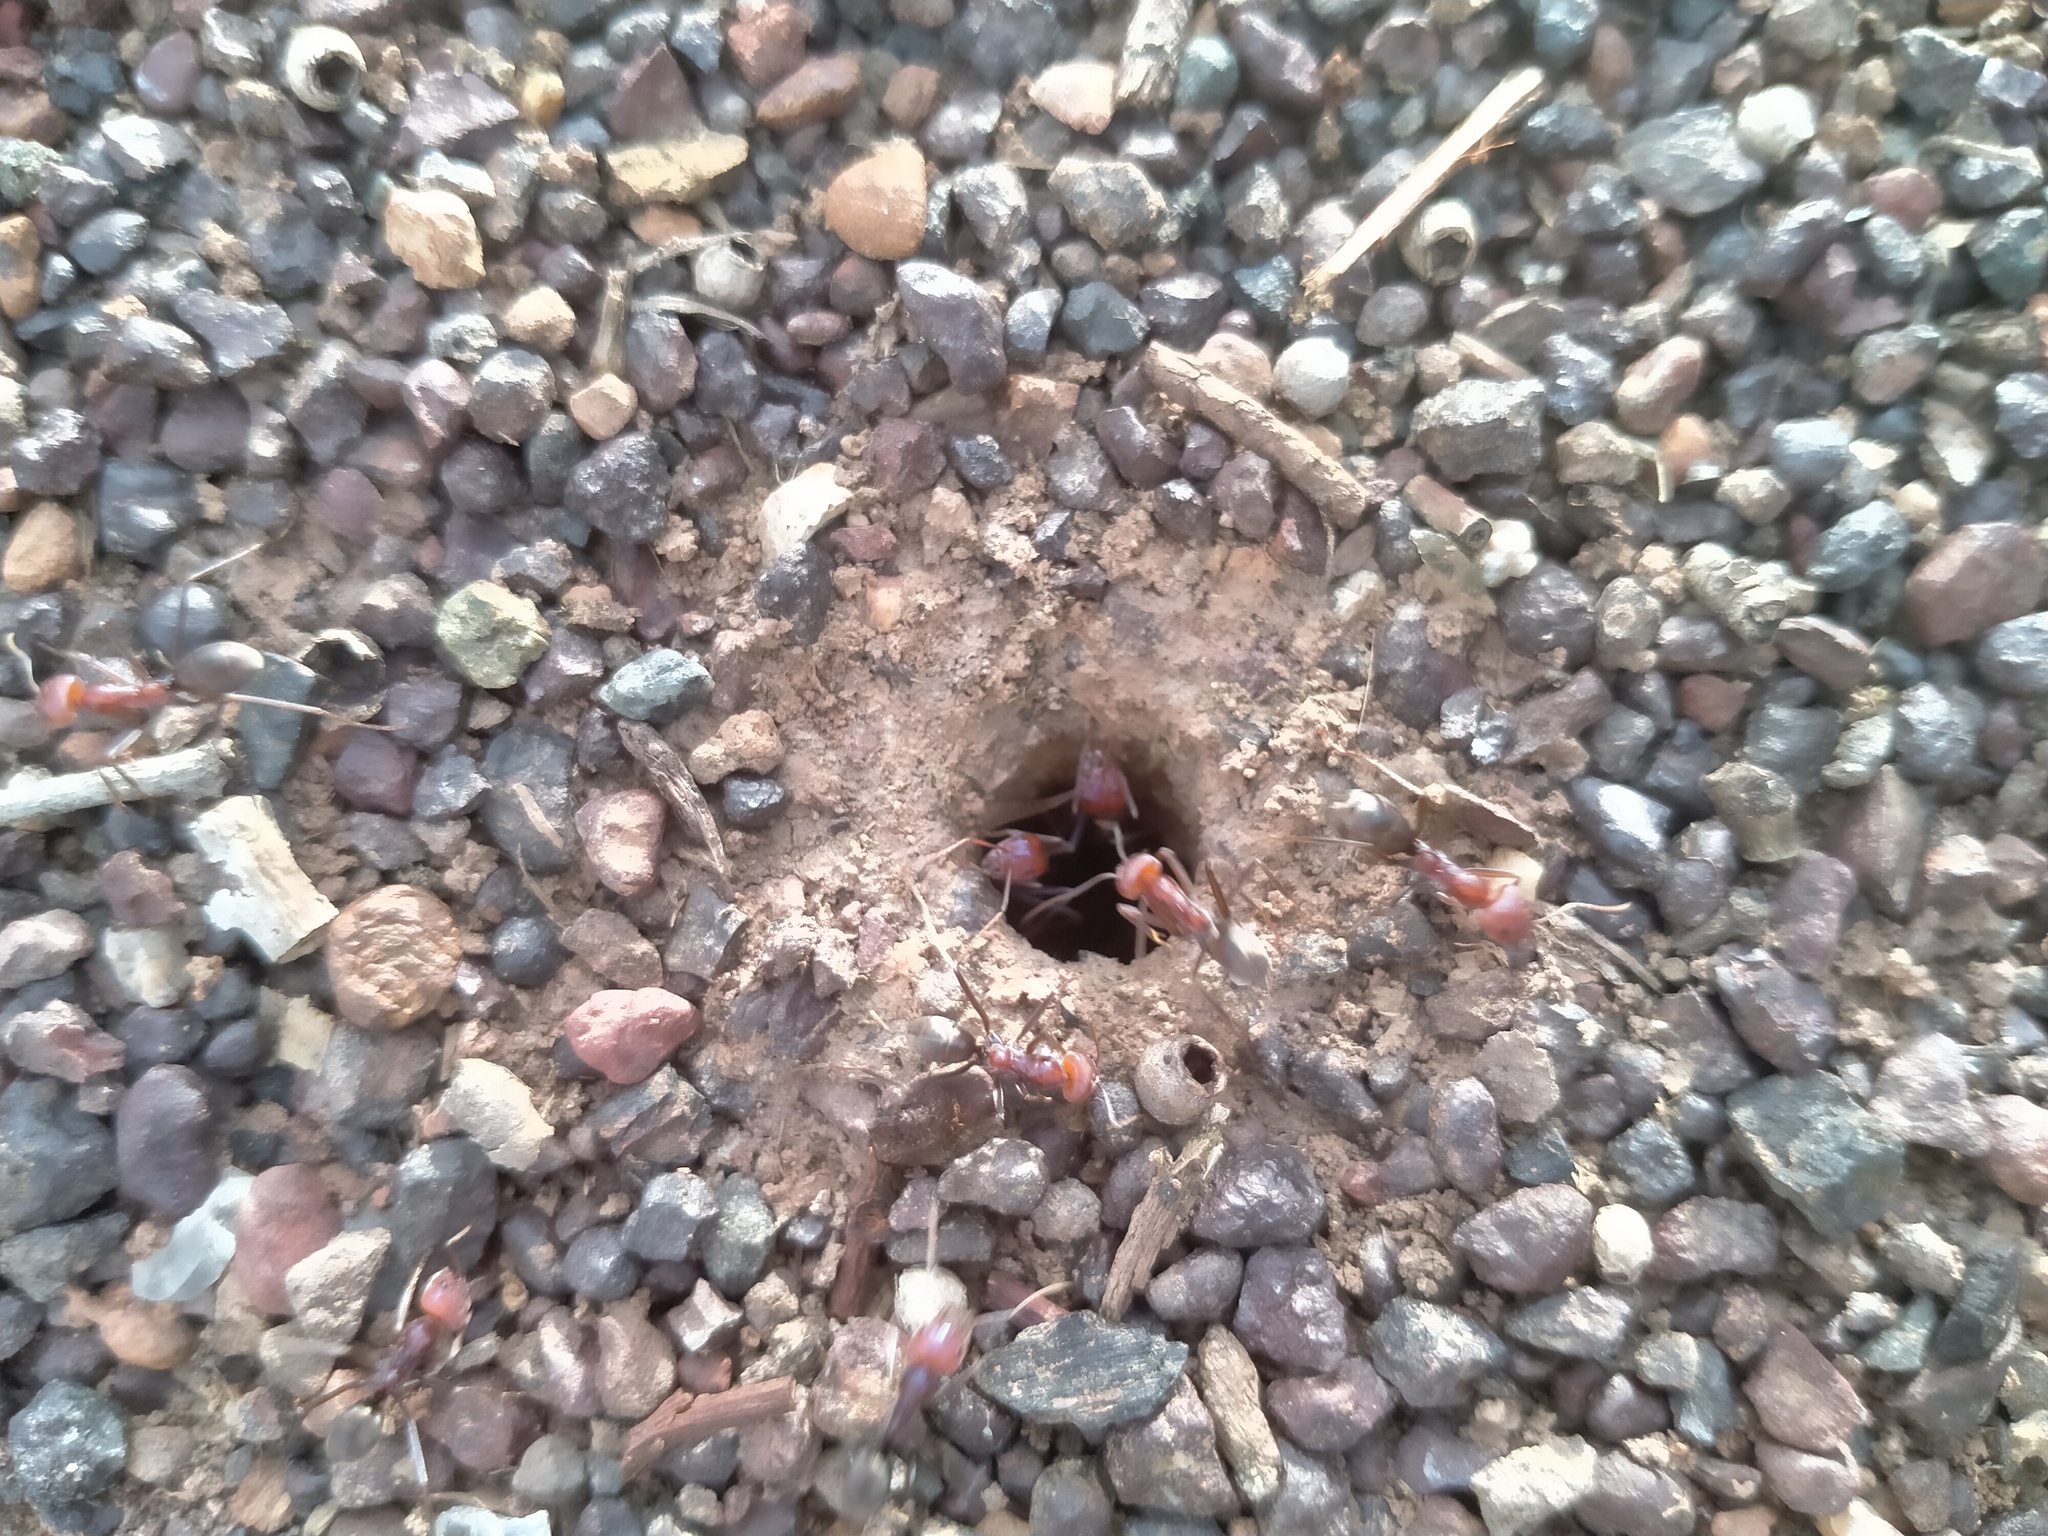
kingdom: Animalia
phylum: Arthropoda
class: Insecta
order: Hymenoptera
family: Formicidae
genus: Iridomyrmex
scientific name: Iridomyrmex purpureus
